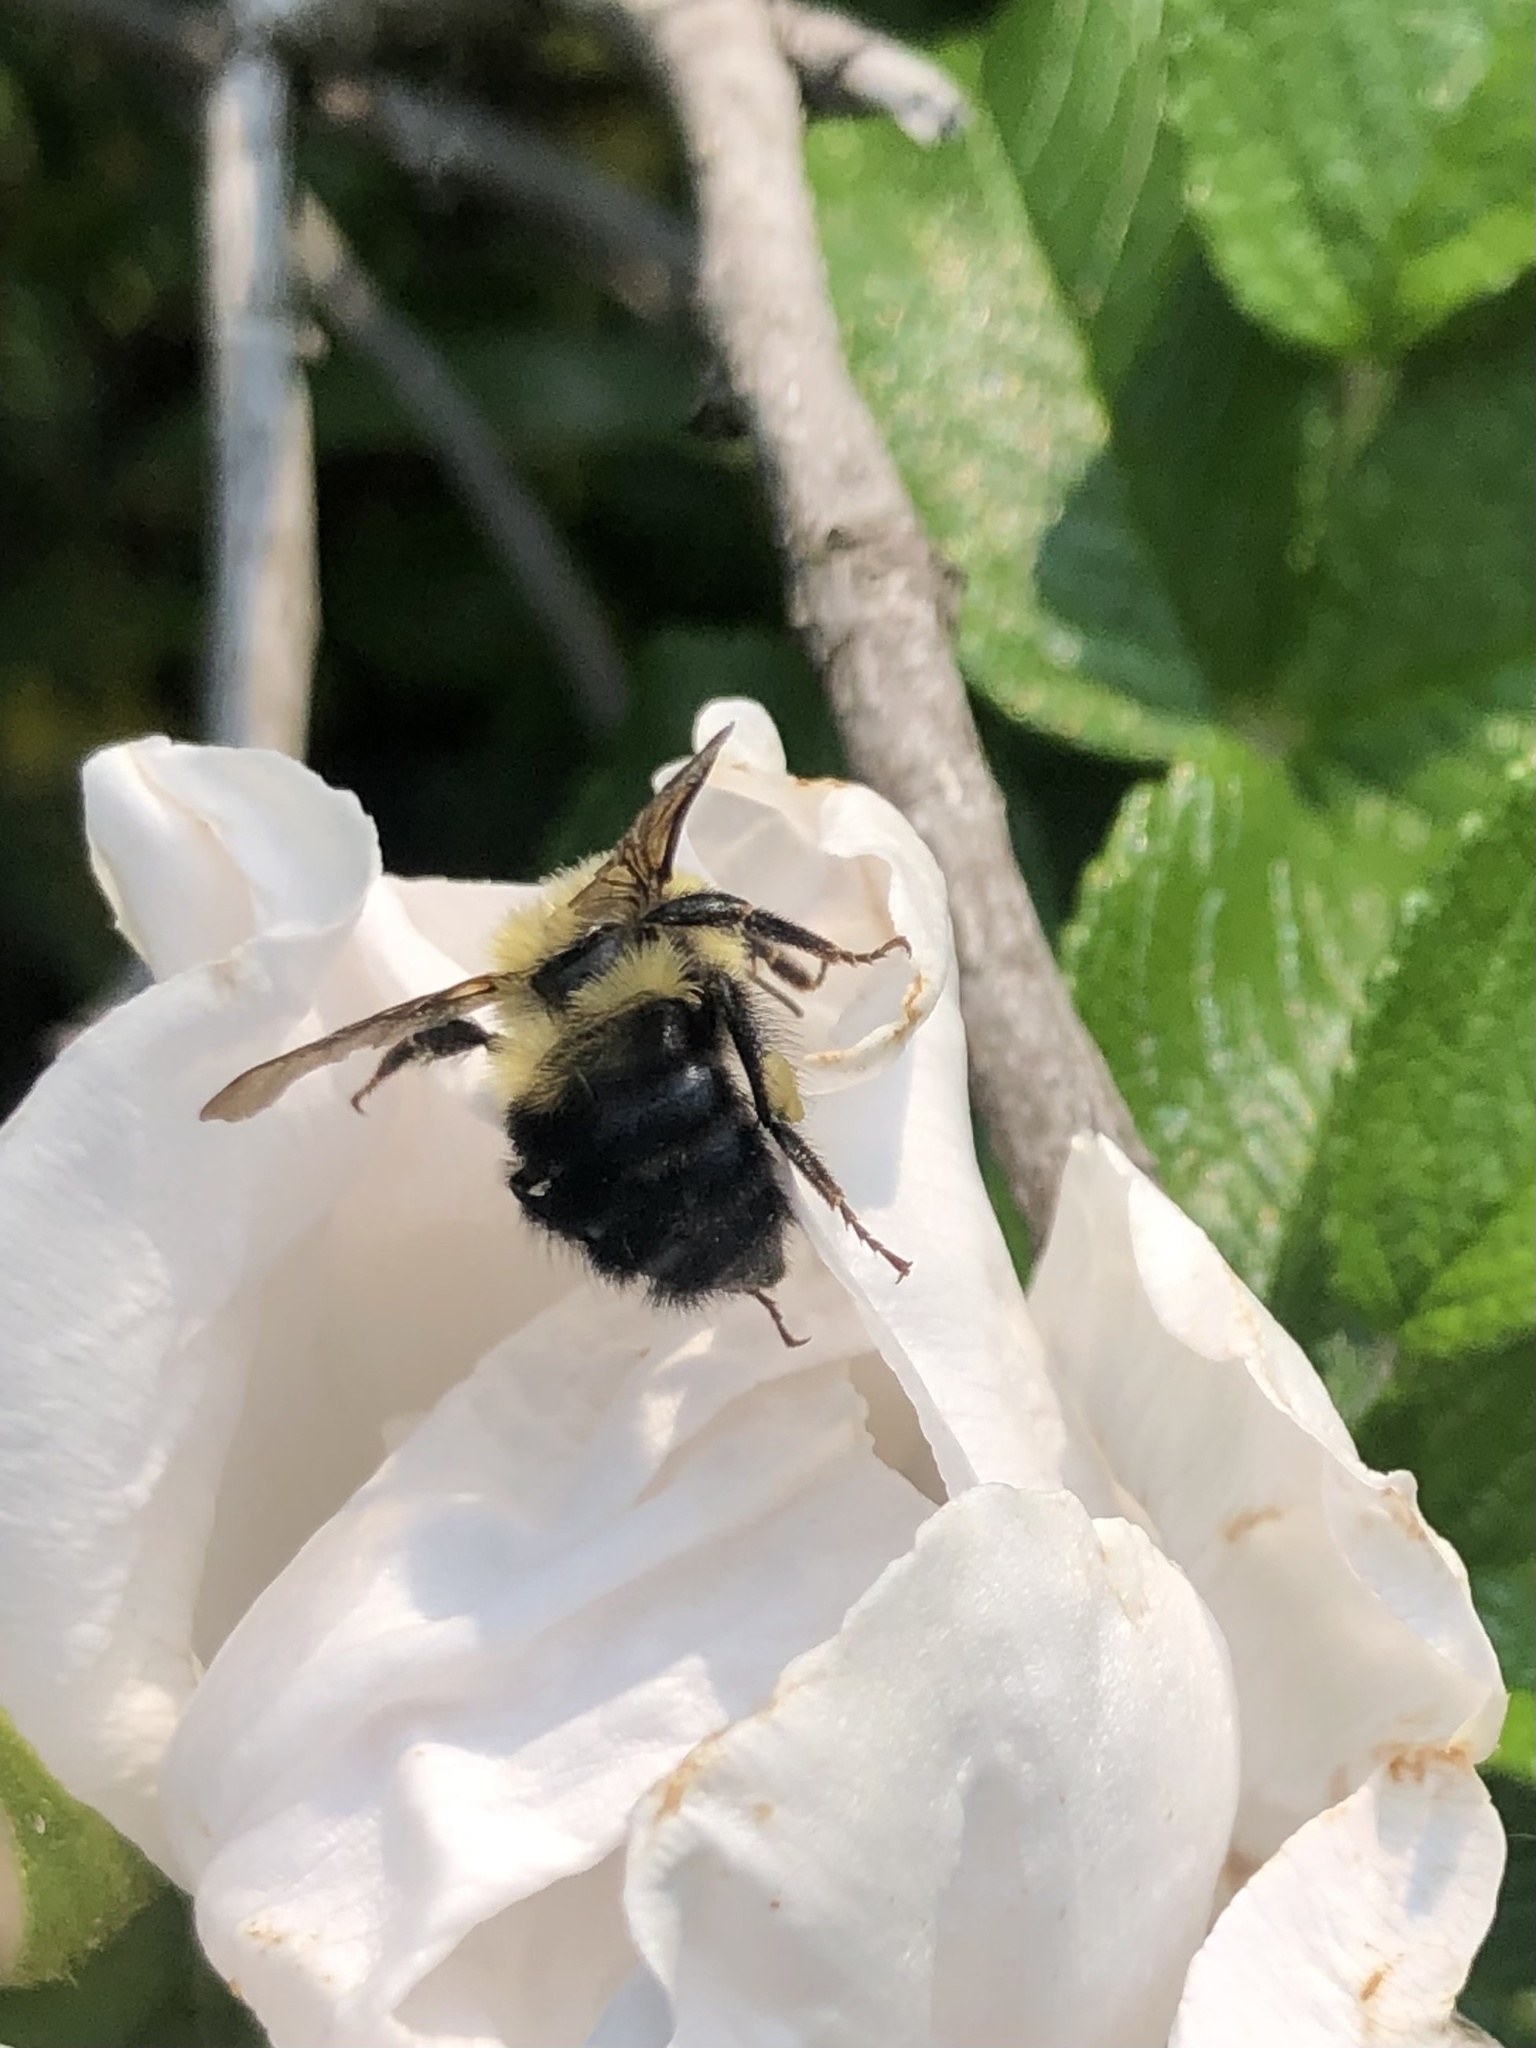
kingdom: Animalia
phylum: Arthropoda
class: Insecta
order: Hymenoptera
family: Apidae
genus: Bombus
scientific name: Bombus bimaculatus
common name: Two-spotted bumble bee
